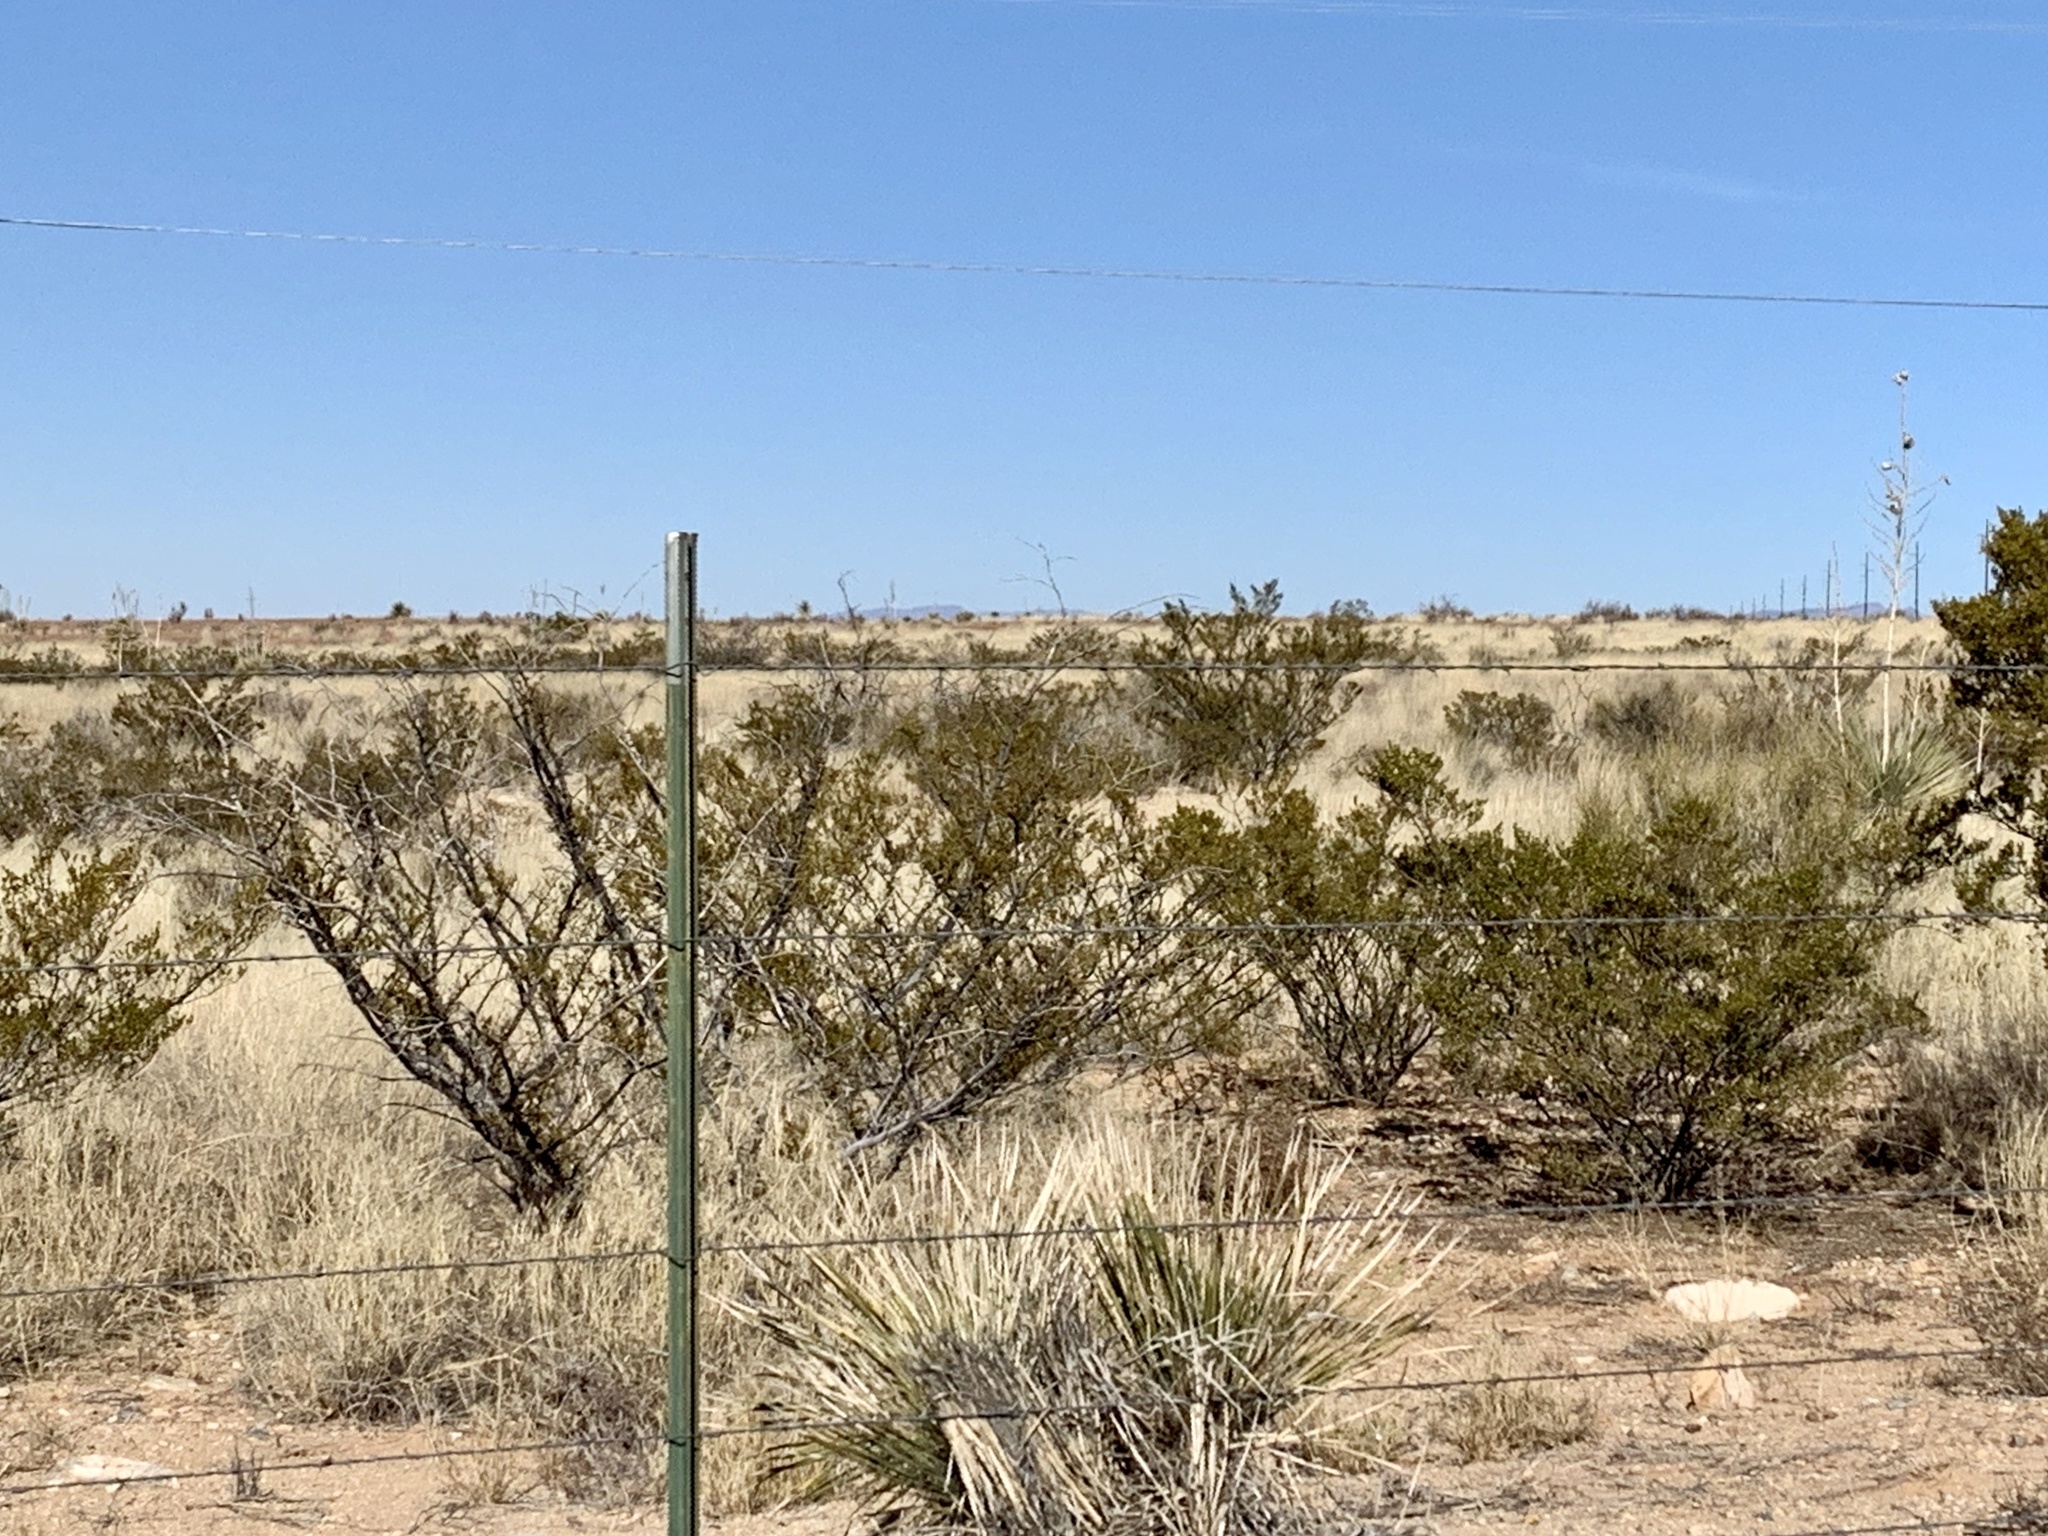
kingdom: Plantae
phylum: Tracheophyta
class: Magnoliopsida
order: Zygophyllales
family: Zygophyllaceae
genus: Larrea
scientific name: Larrea tridentata
